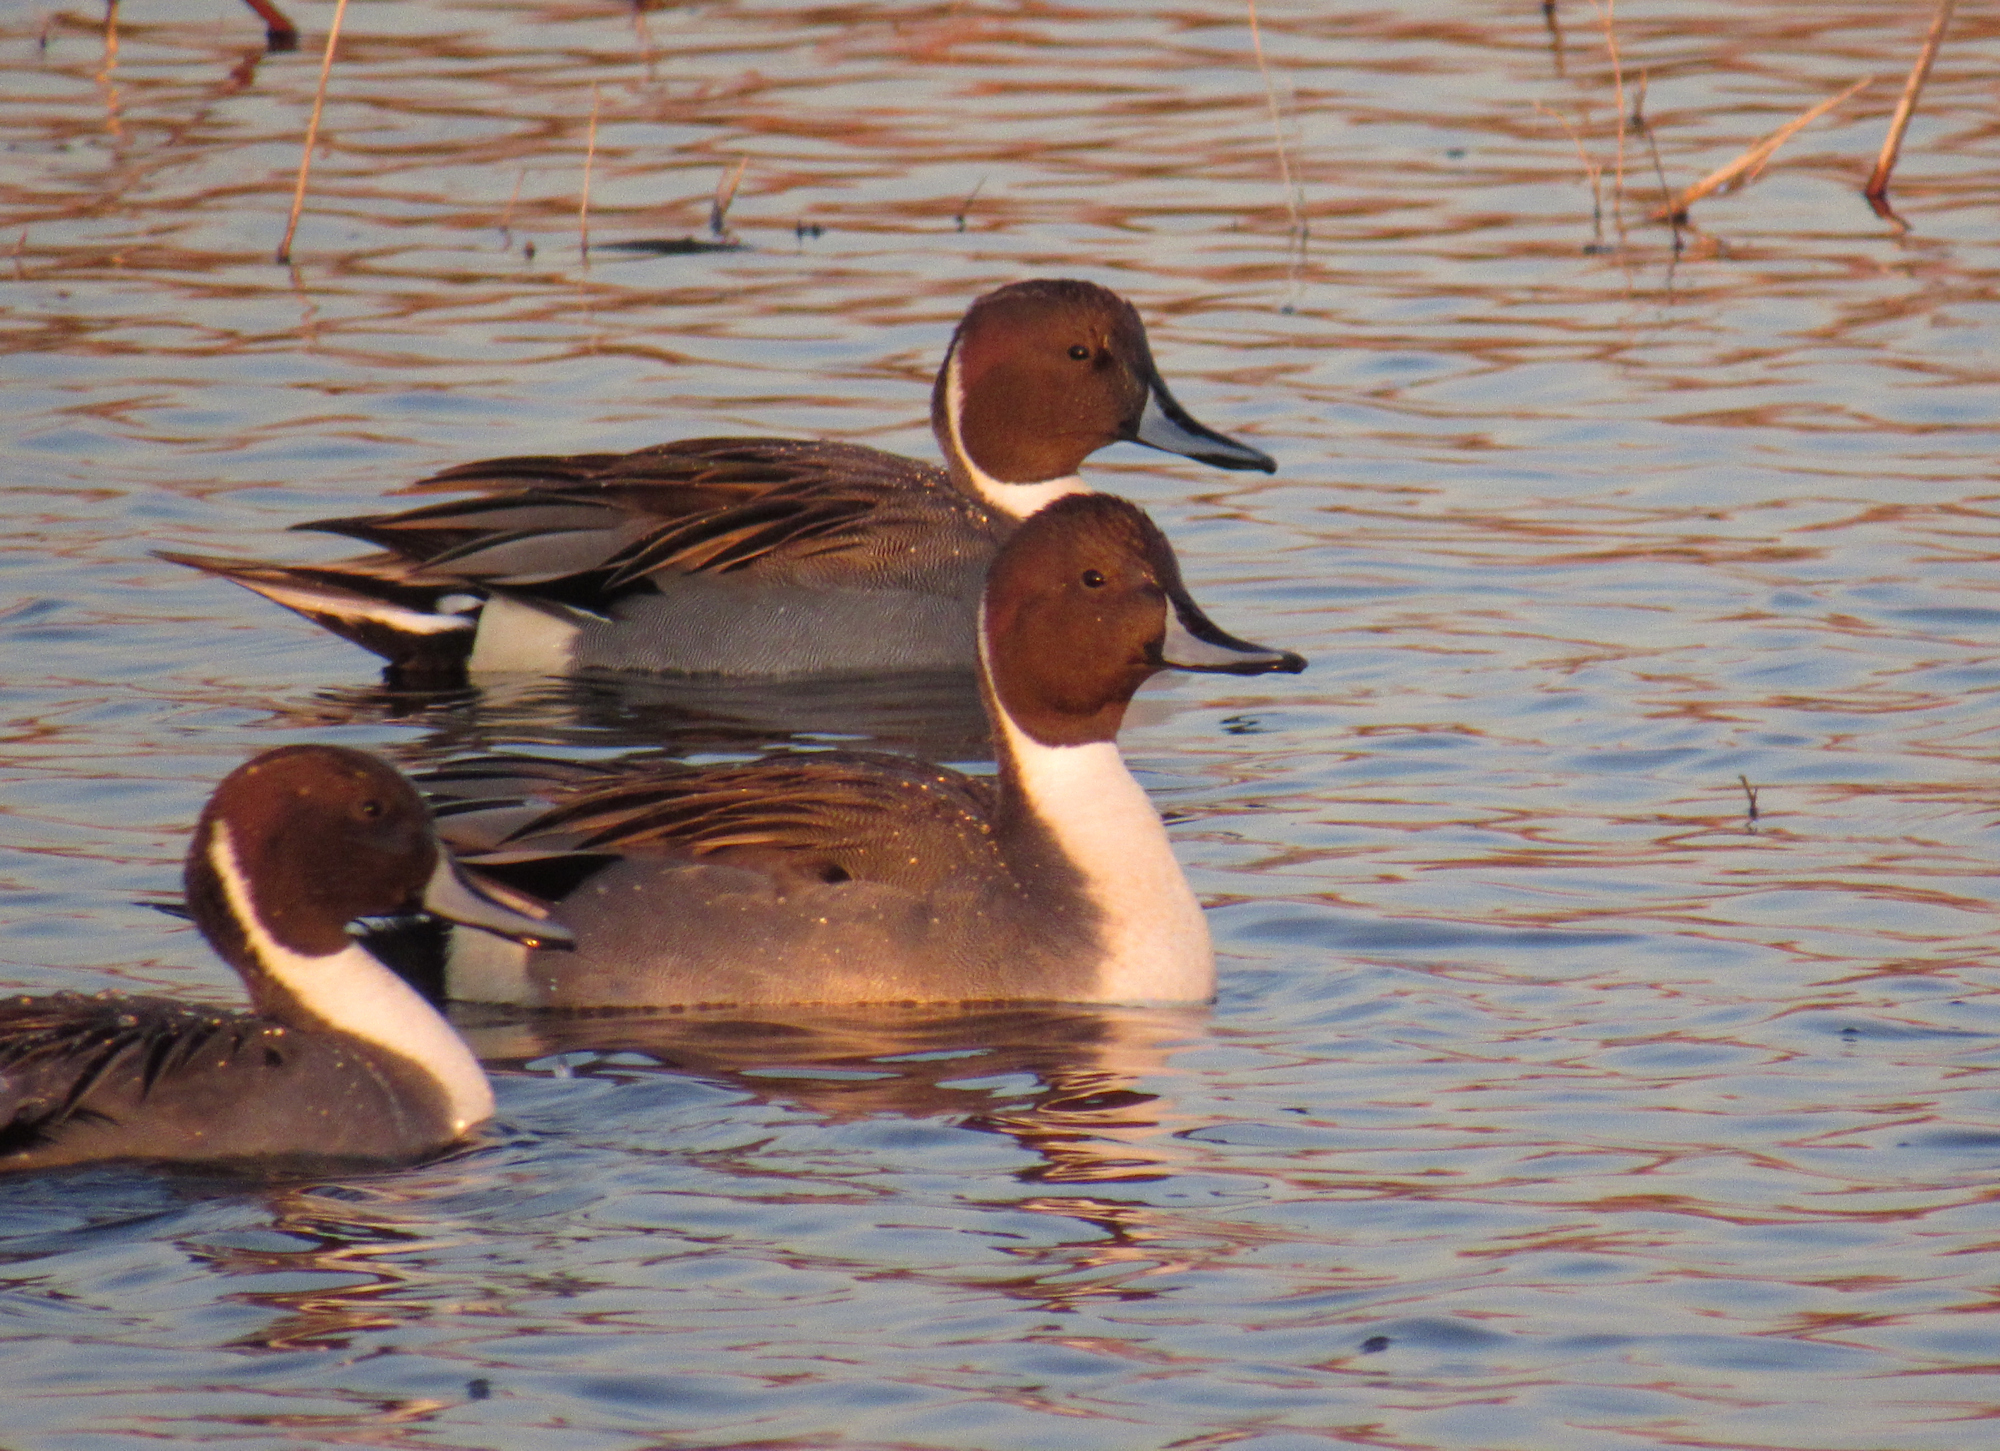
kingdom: Animalia
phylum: Chordata
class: Aves
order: Anseriformes
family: Anatidae
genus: Anas
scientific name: Anas acuta
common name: Northern pintail
